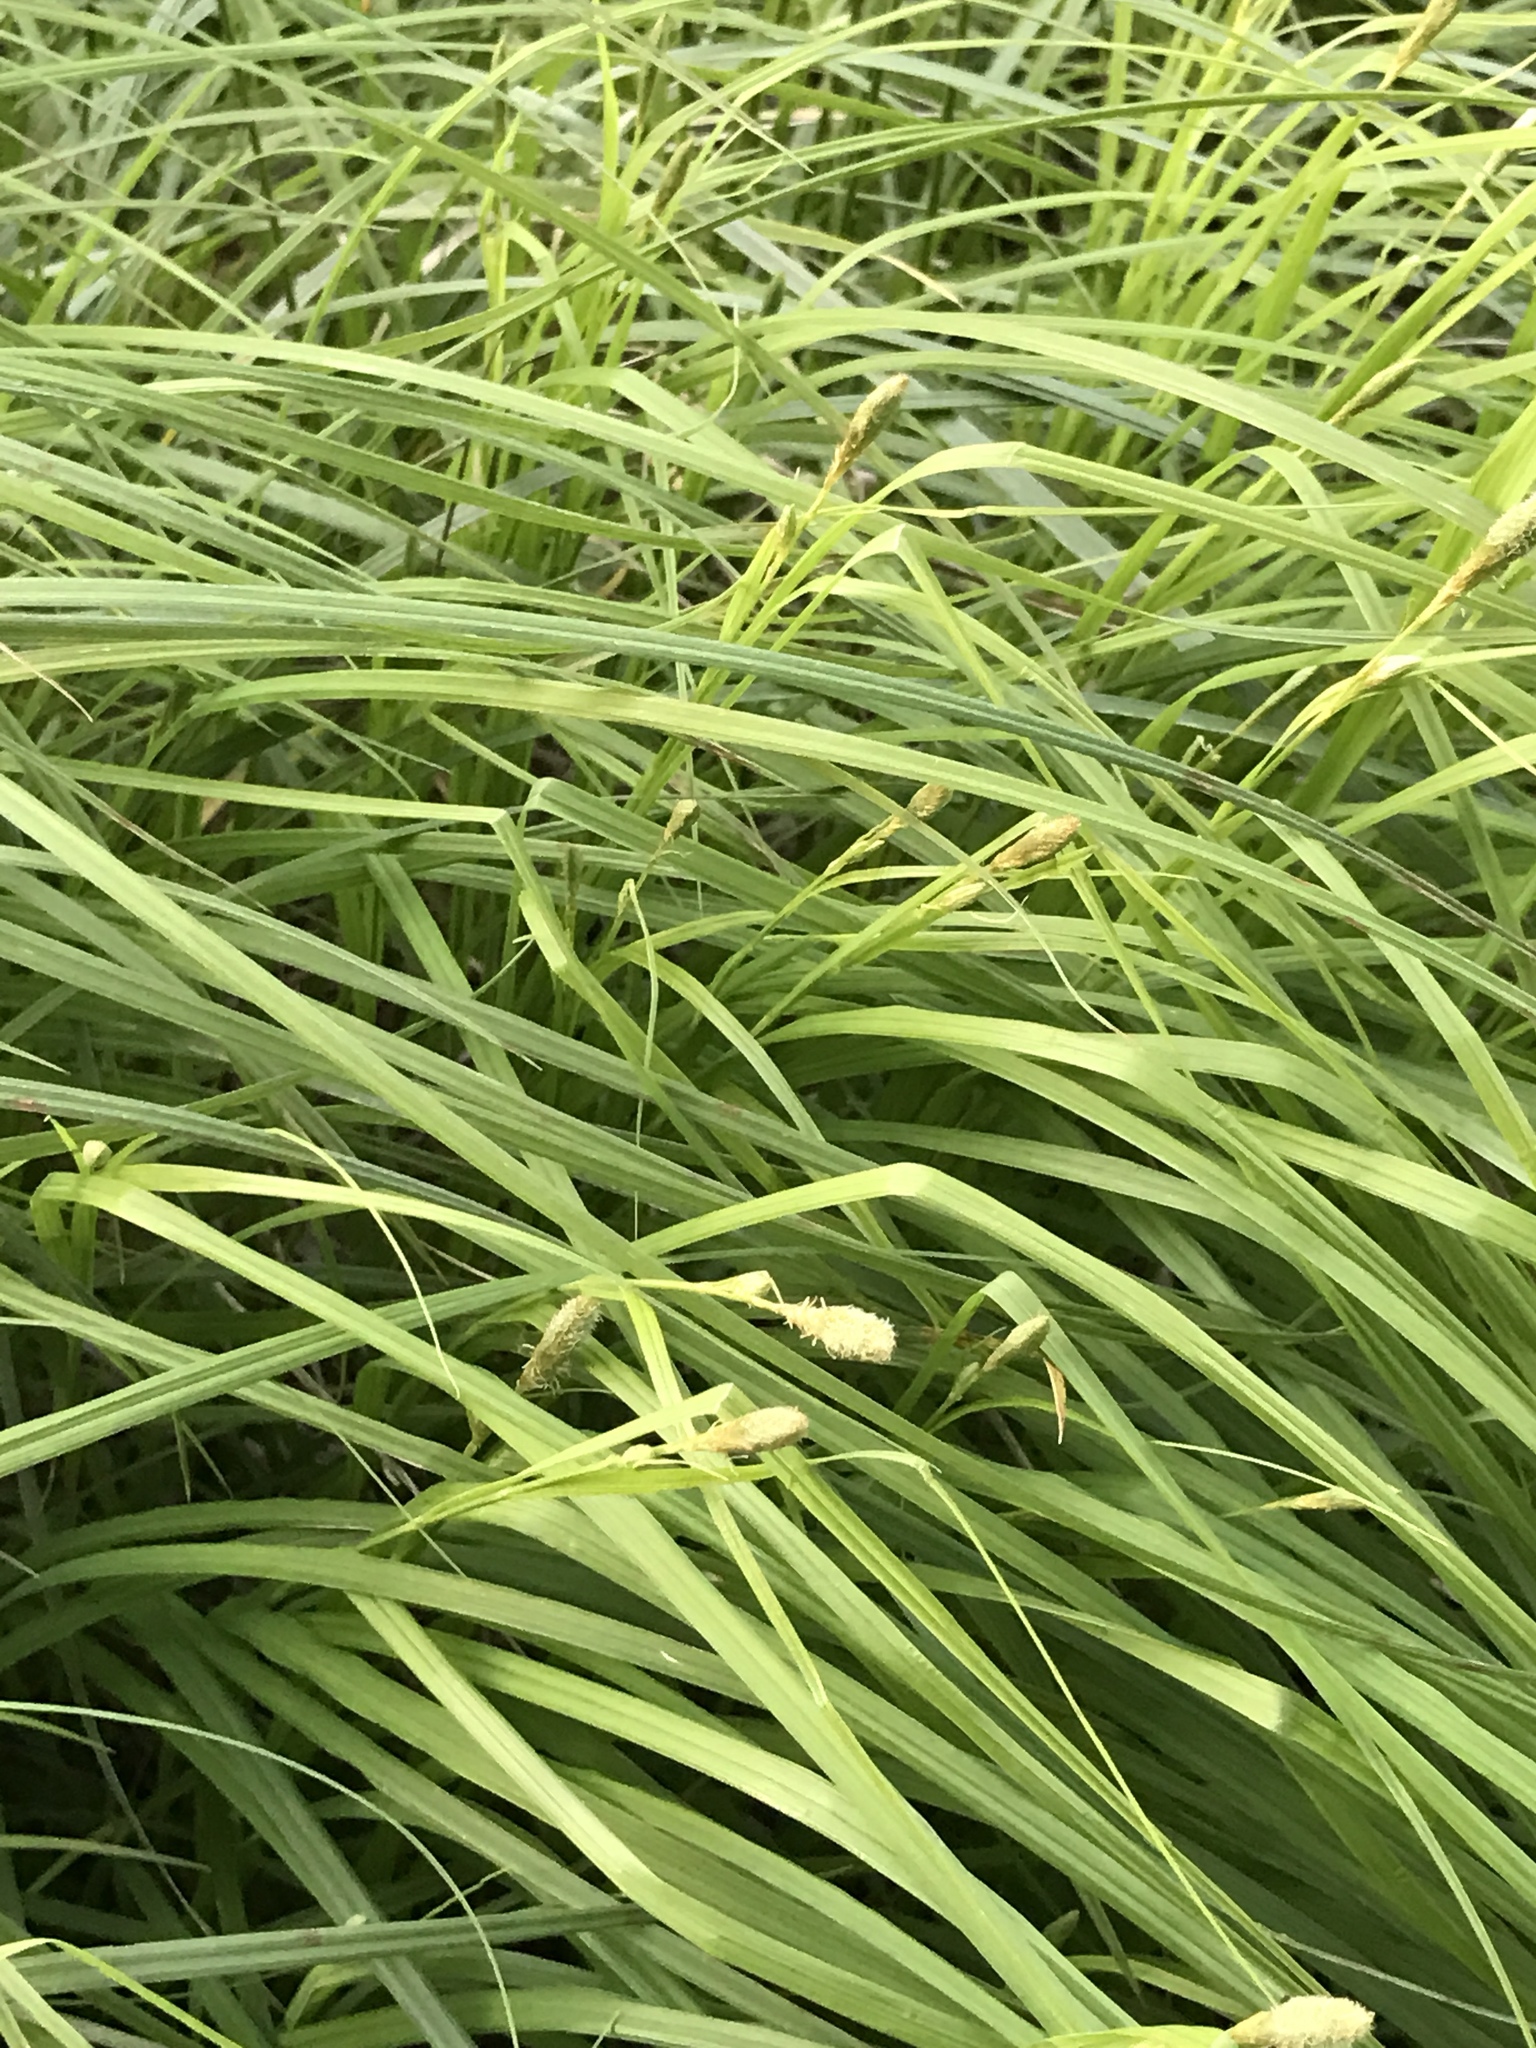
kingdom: Plantae
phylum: Tracheophyta
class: Liliopsida
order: Poales
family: Cyperaceae
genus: Carex
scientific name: Carex squarrosa
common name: Narrow-leaved cattail sedge
